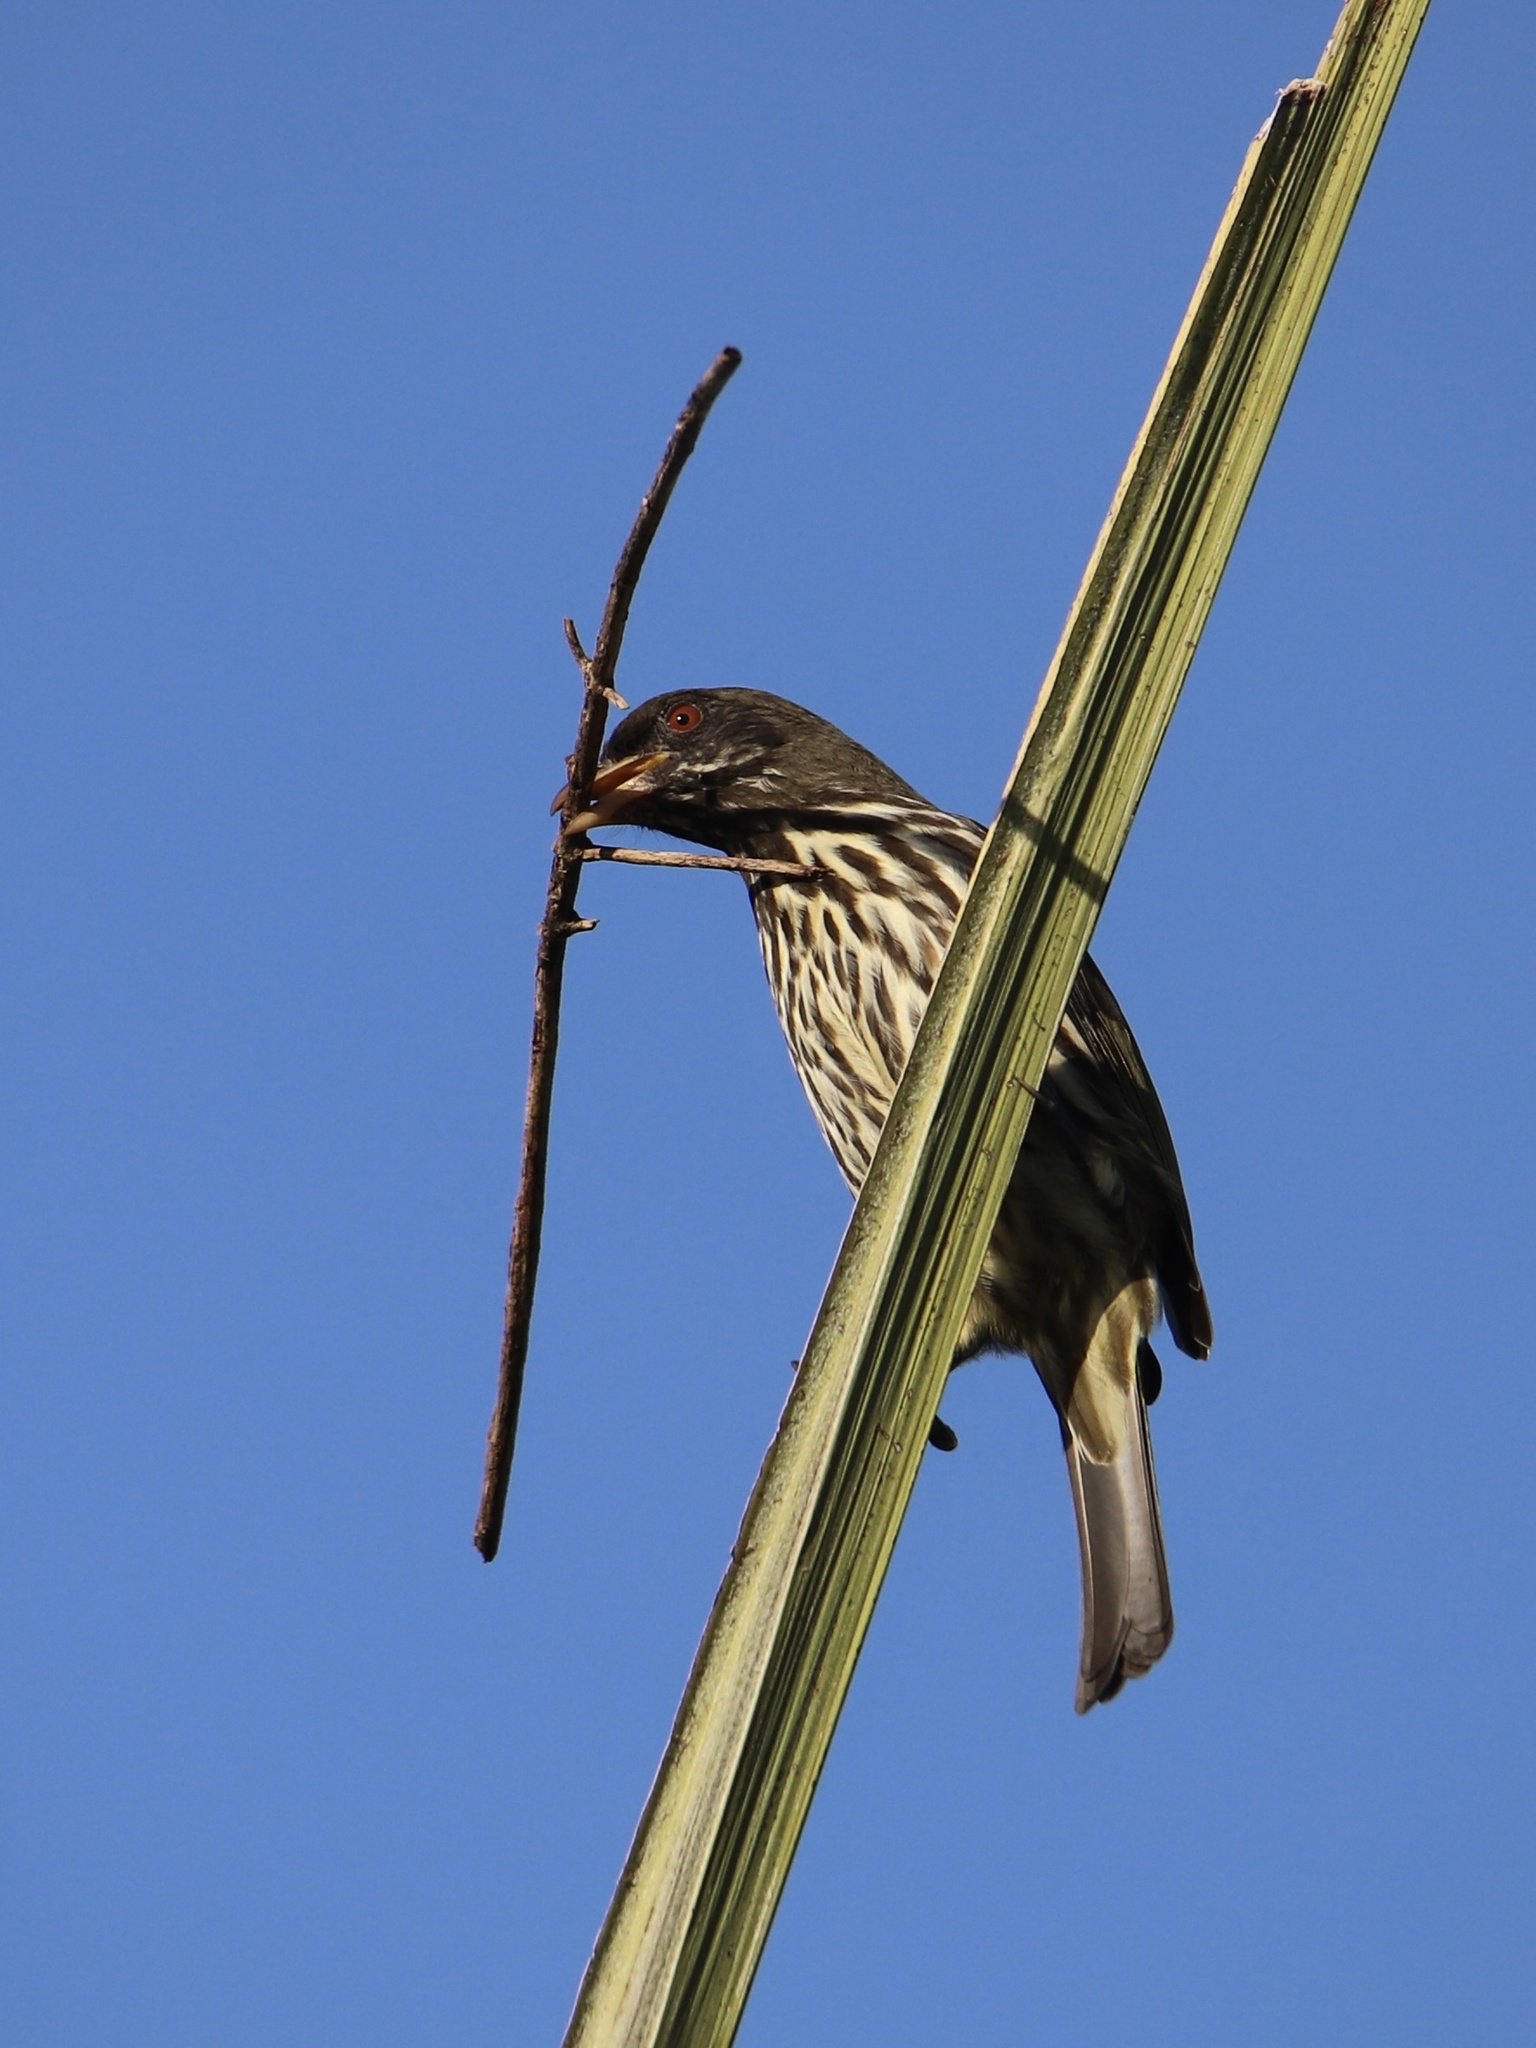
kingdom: Animalia
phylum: Chordata
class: Aves
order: Passeriformes
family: Dulidae
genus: Dulus
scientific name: Dulus dominicus
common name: Palmchat
